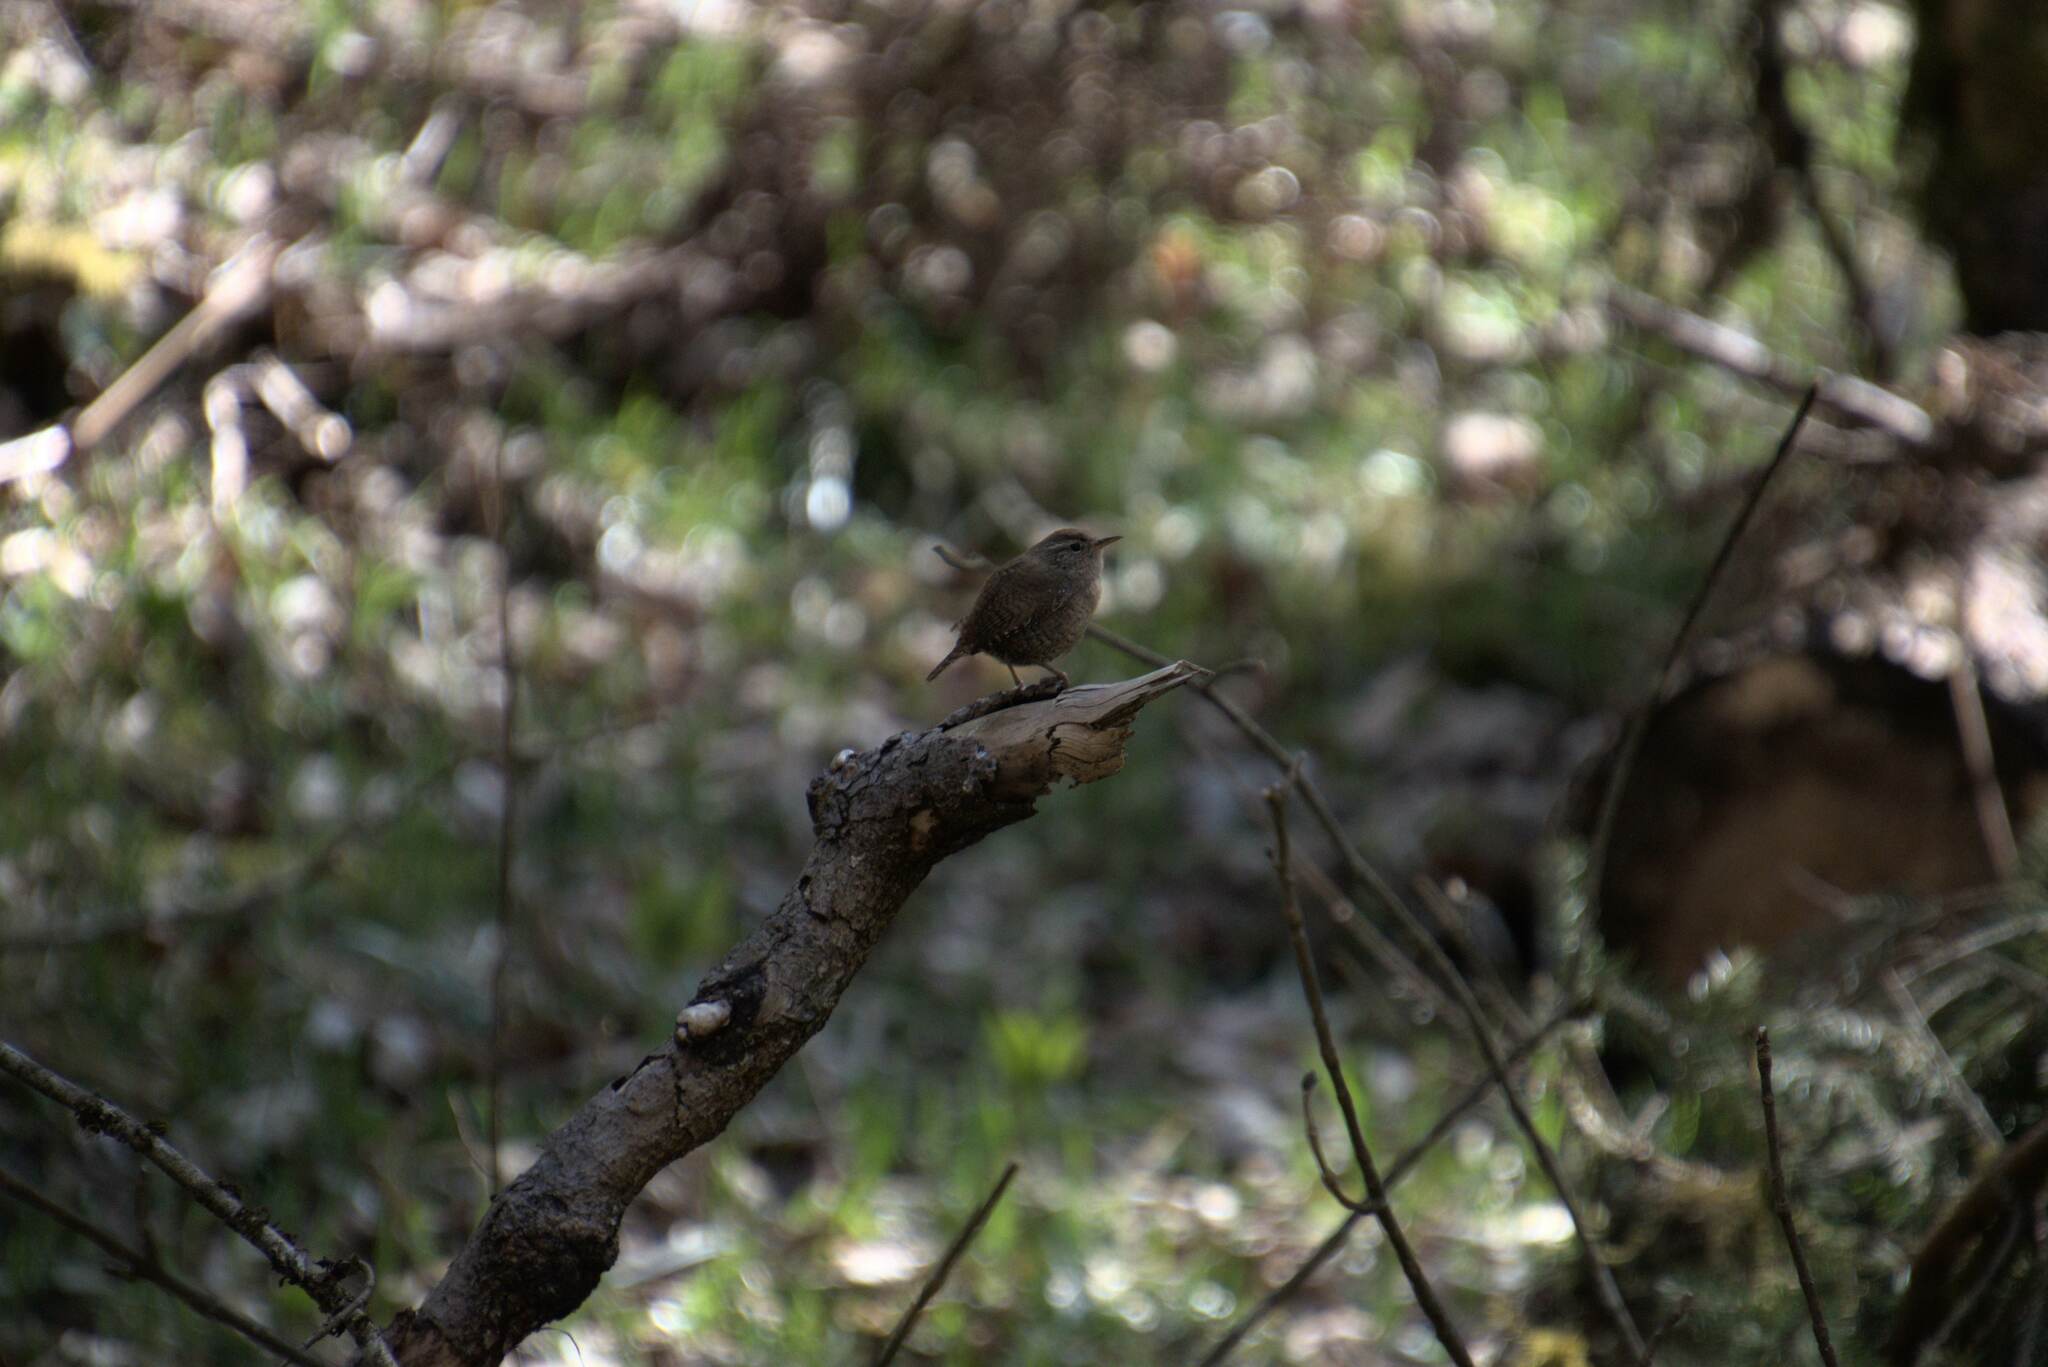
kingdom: Animalia
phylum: Chordata
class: Aves
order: Passeriformes
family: Troglodytidae
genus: Troglodytes
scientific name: Troglodytes troglodytes
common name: Eurasian wren
